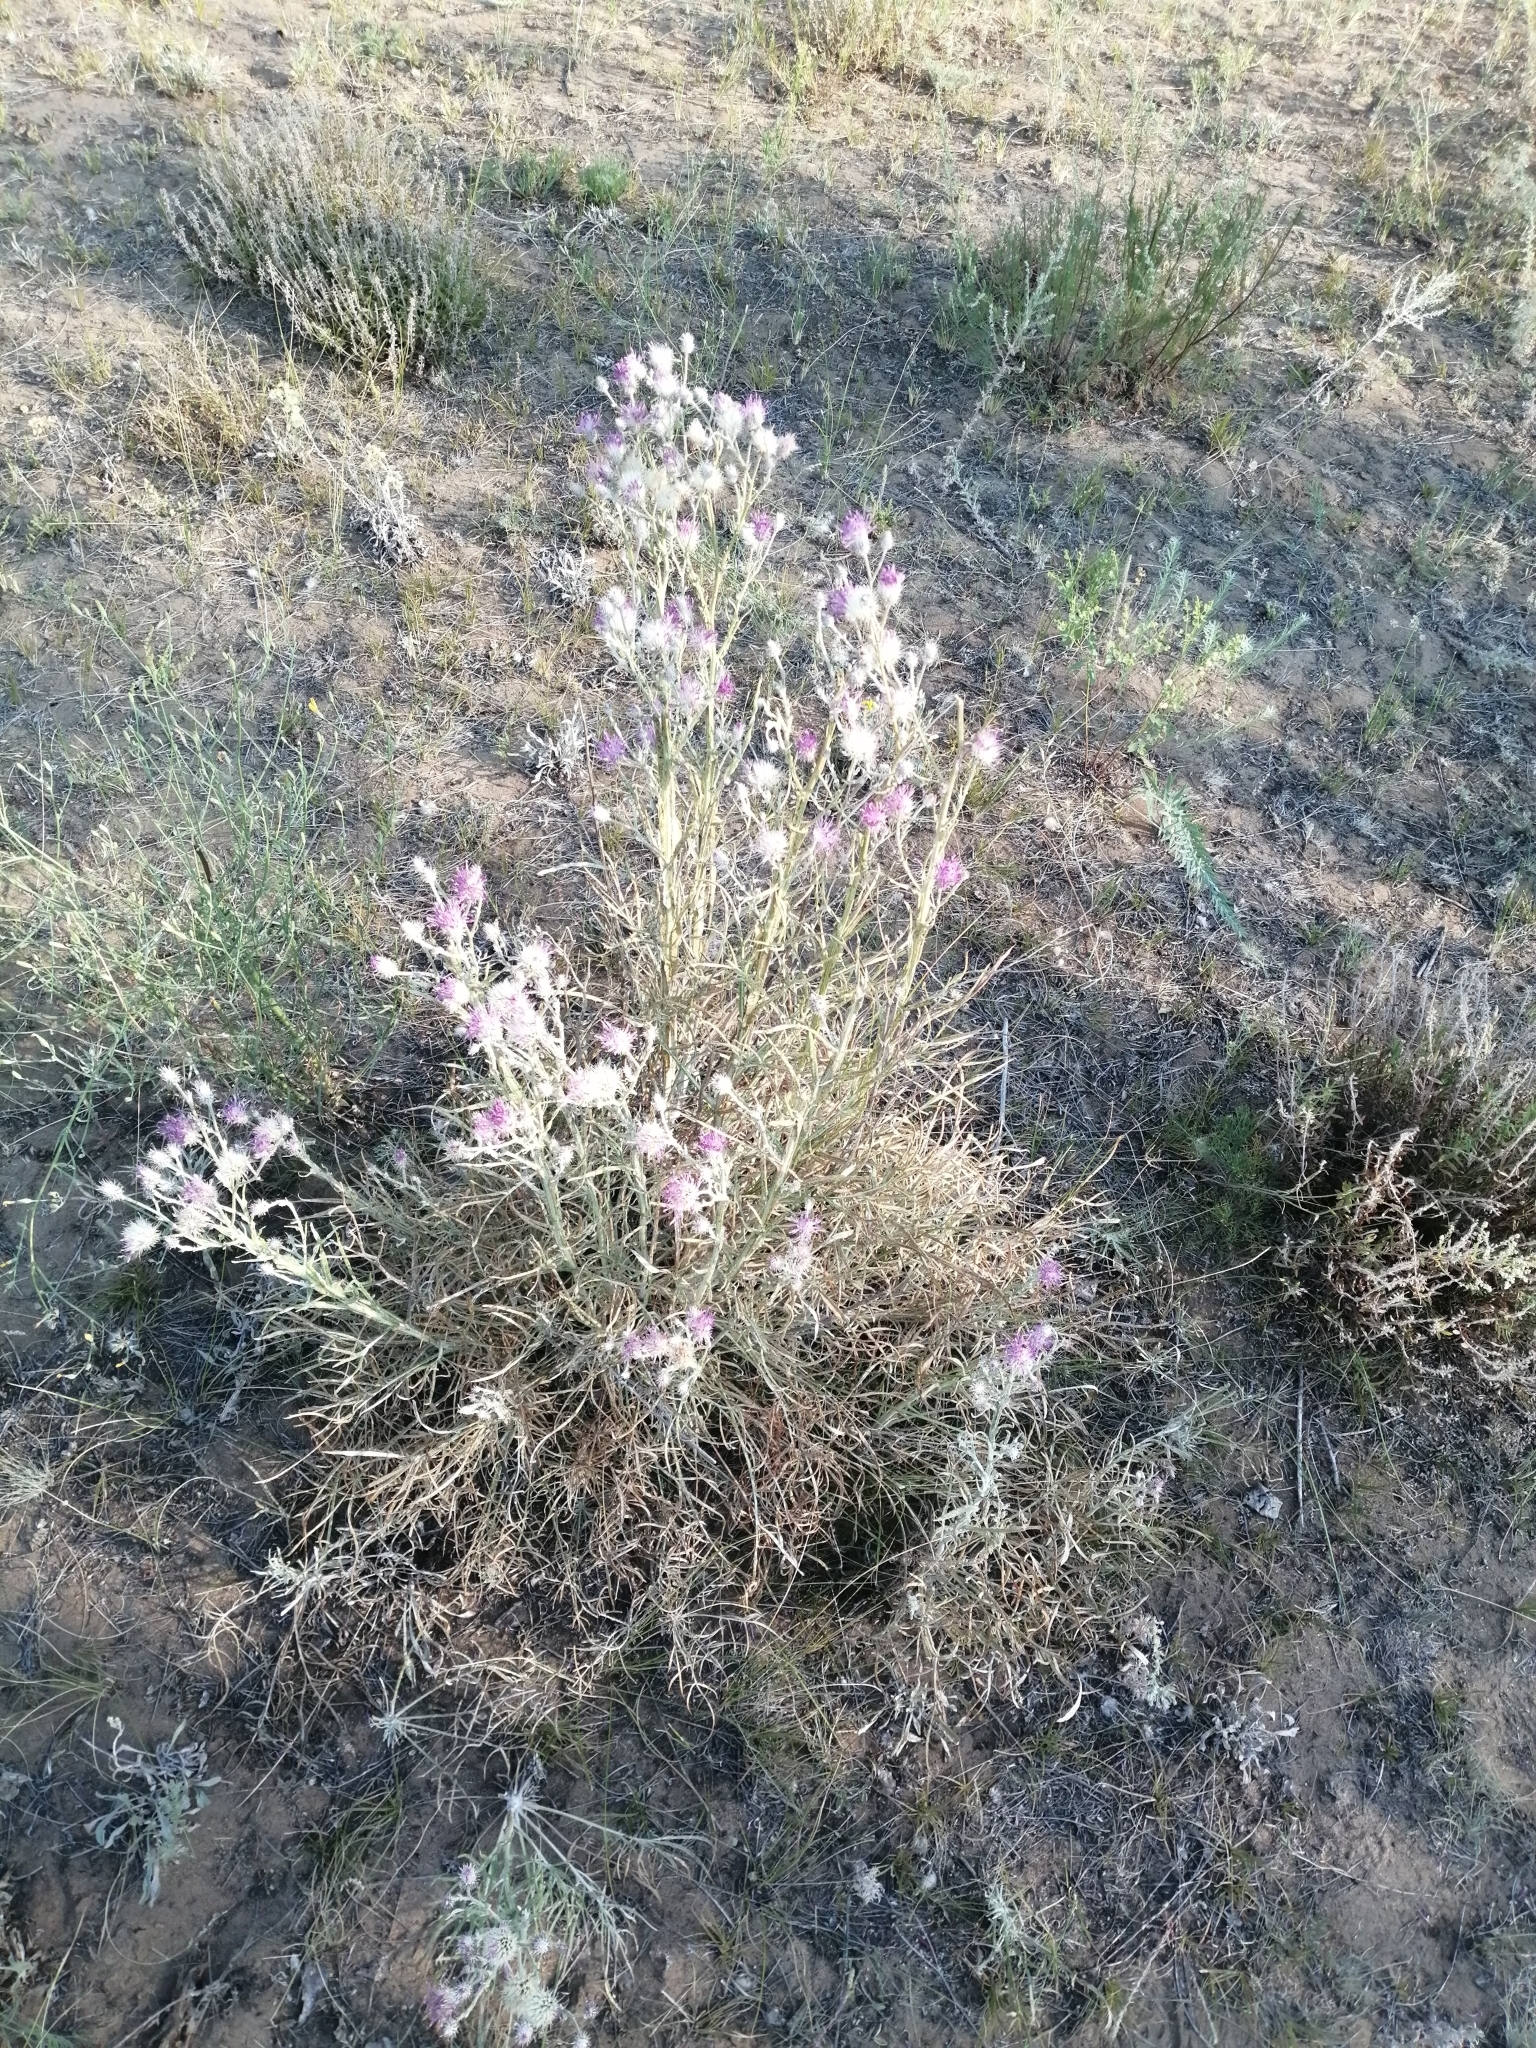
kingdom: Plantae
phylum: Tracheophyta
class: Magnoliopsida
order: Asterales
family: Asteraceae
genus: Jurinea
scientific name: Jurinea polyclonos
